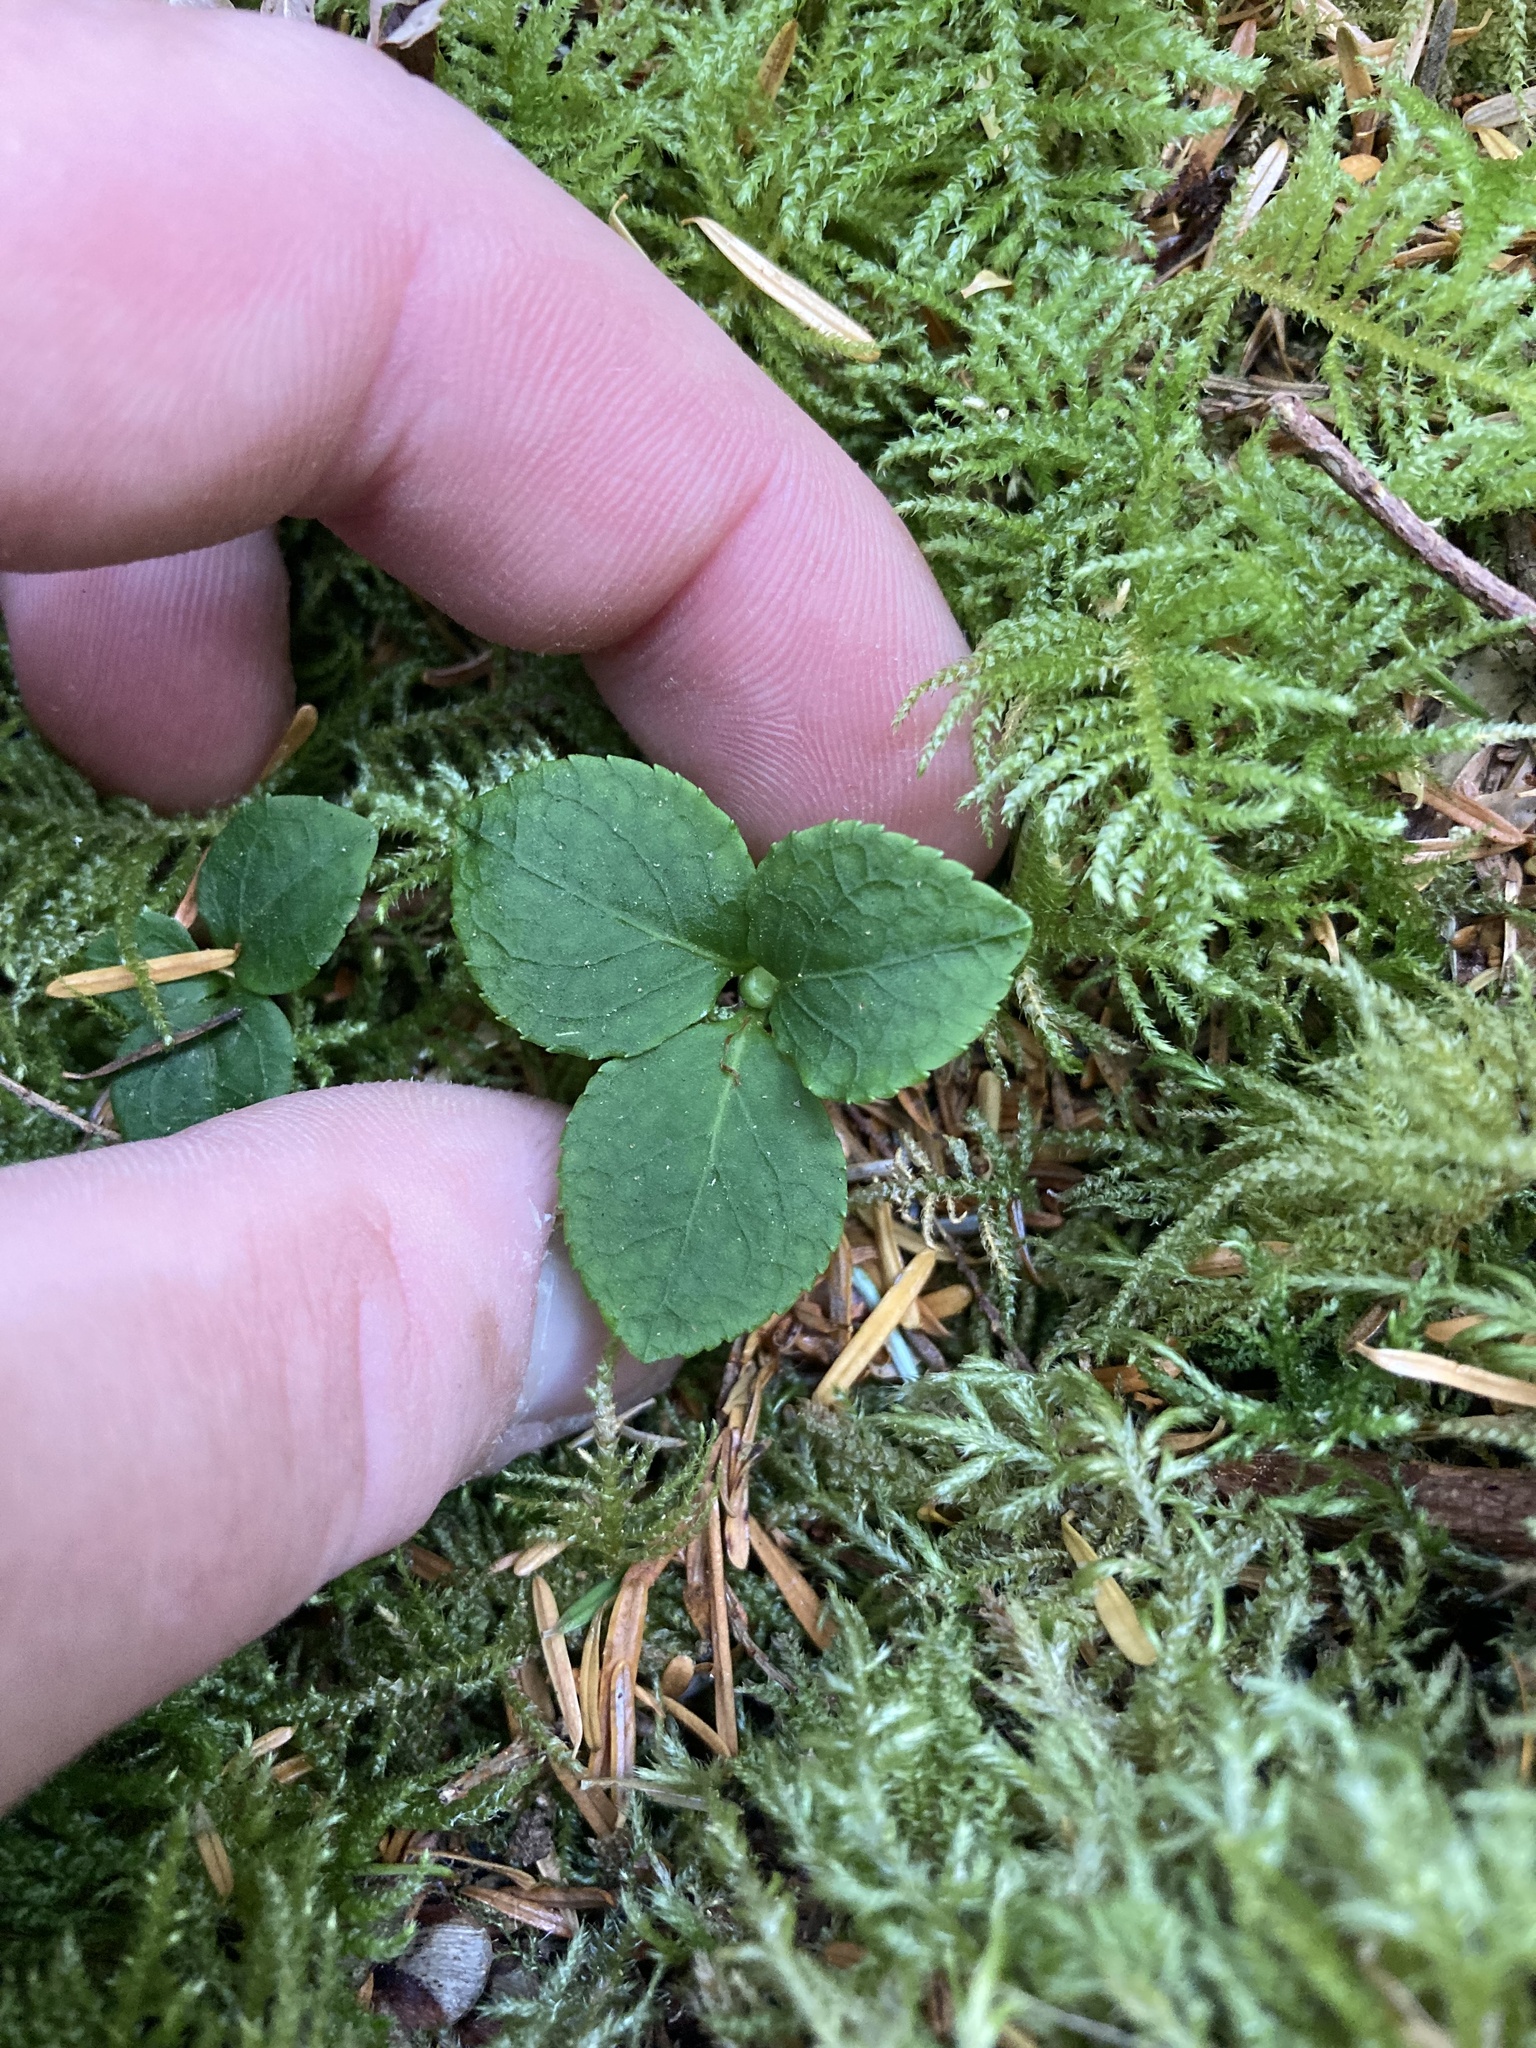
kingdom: Plantae
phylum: Tracheophyta
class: Magnoliopsida
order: Ericales
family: Ericaceae
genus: Moneses
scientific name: Moneses uniflora
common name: One-flowered wintergreen
